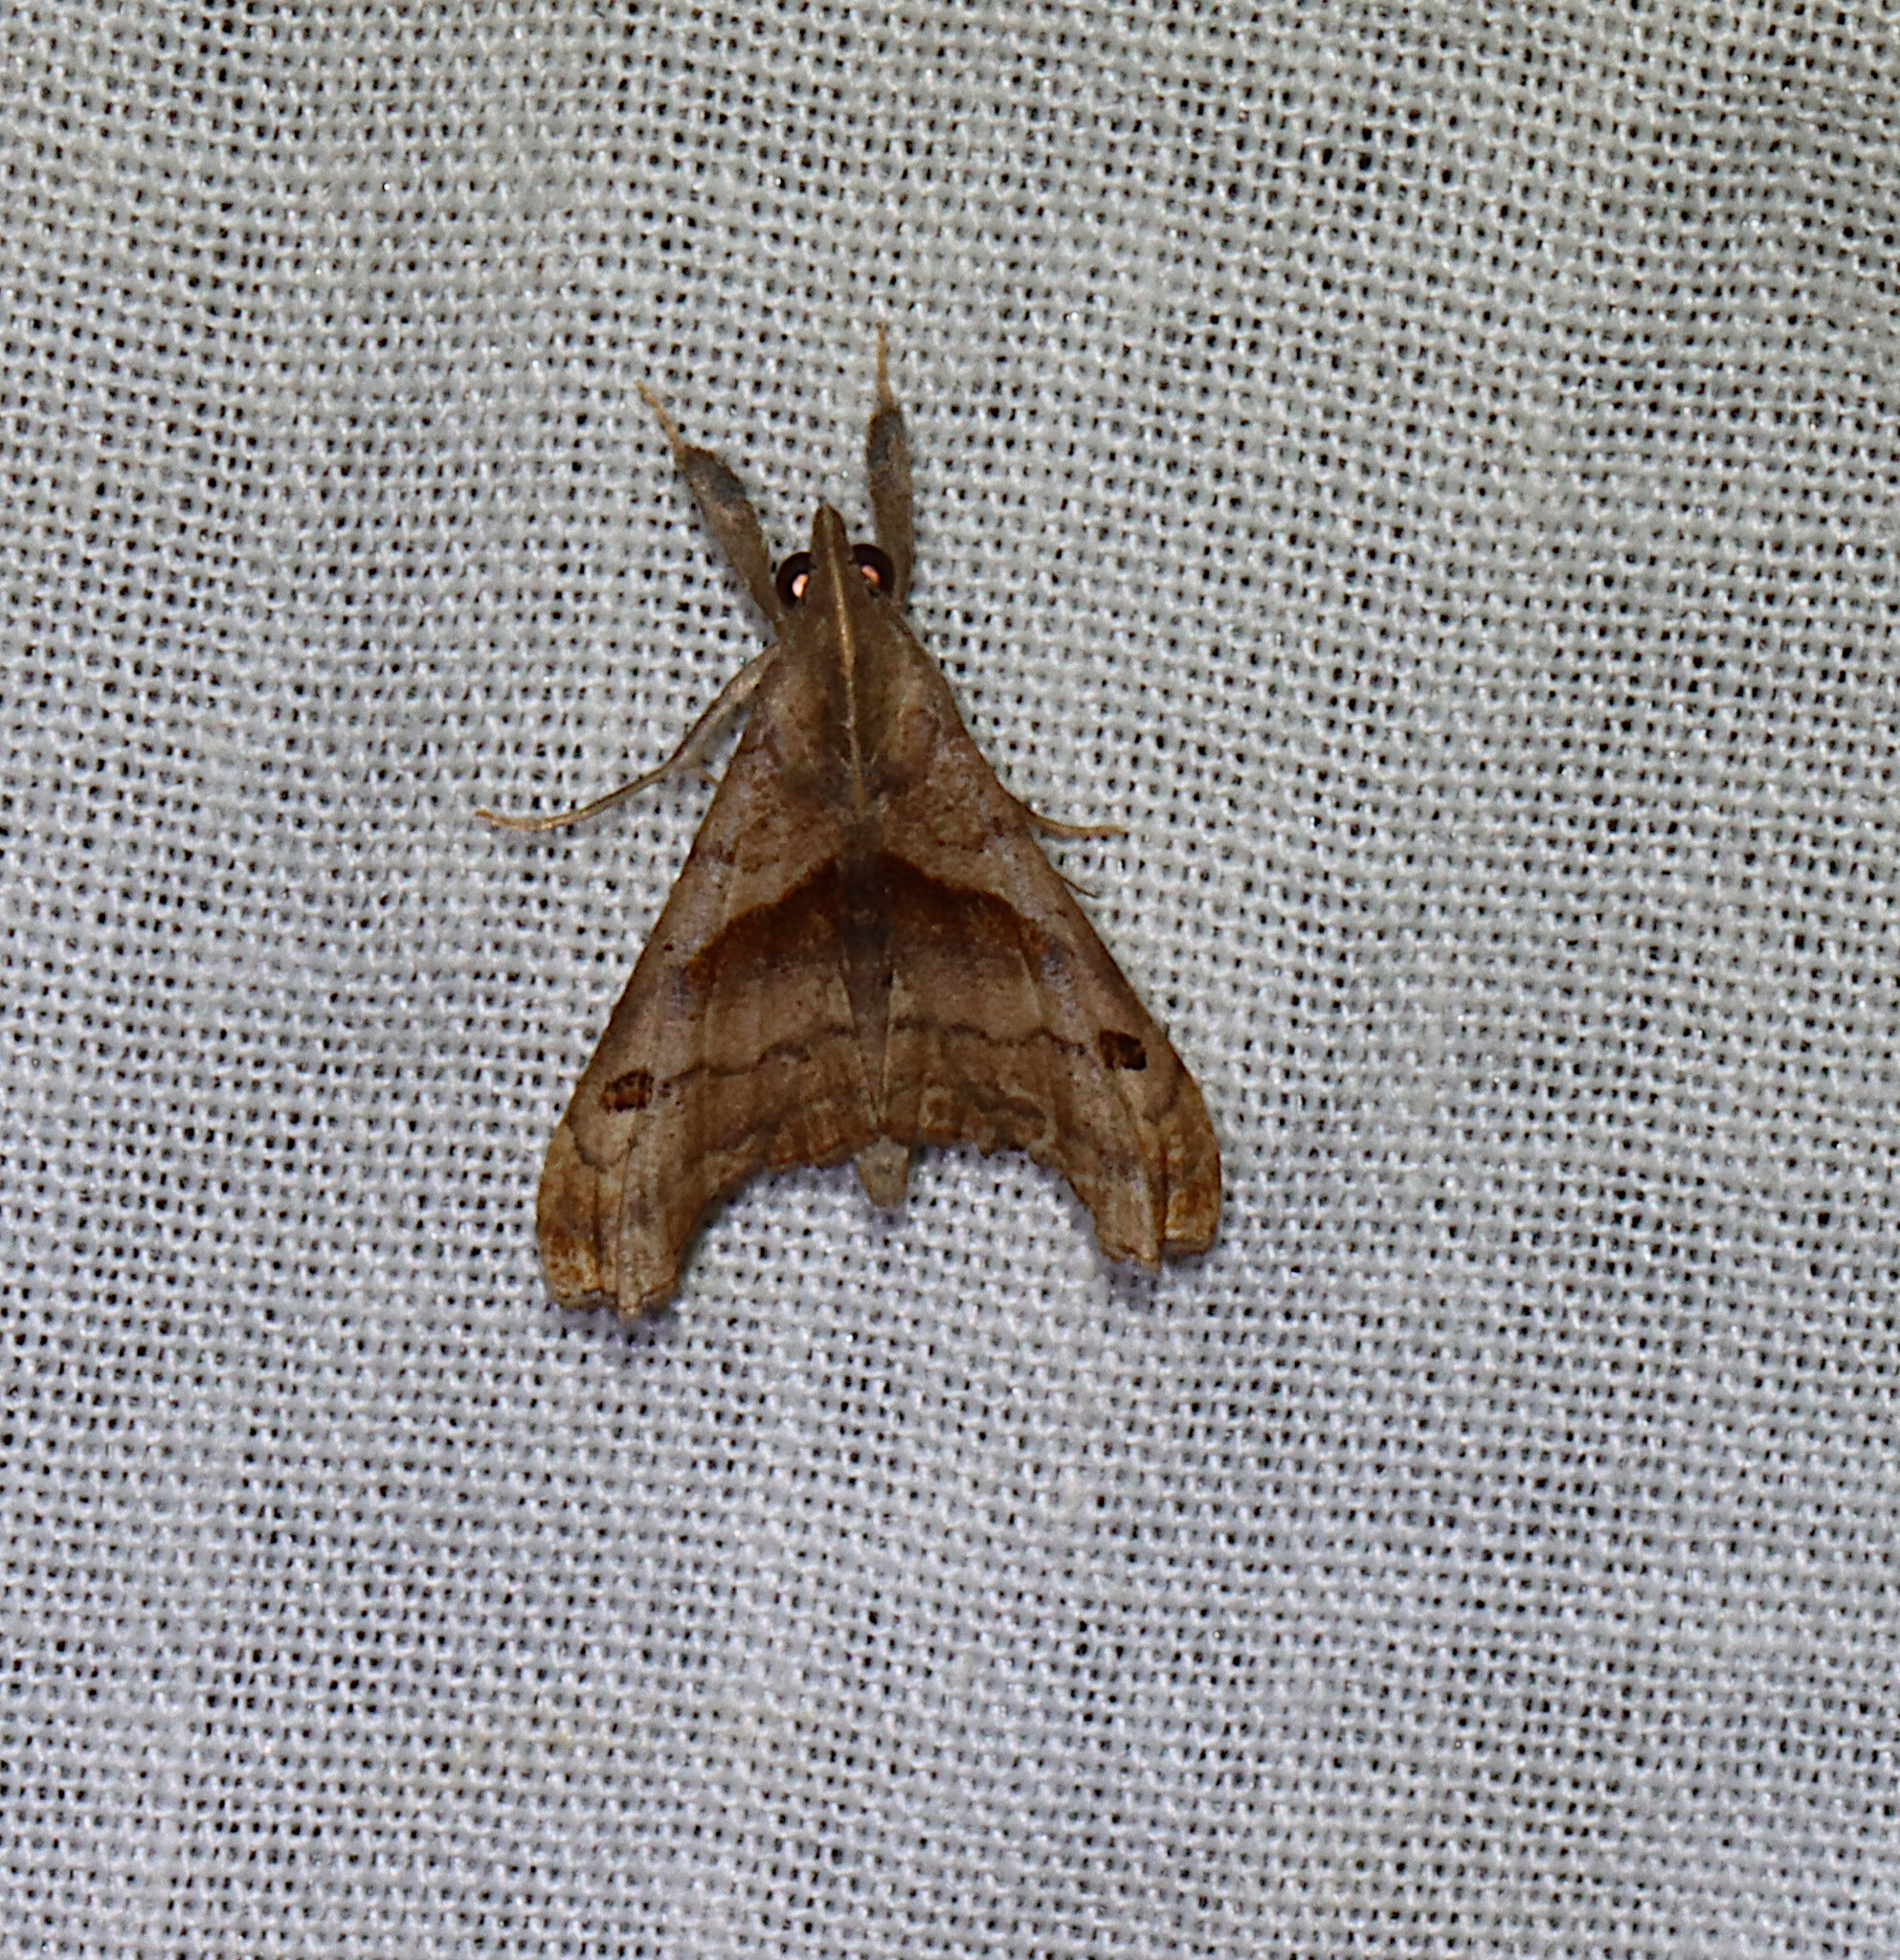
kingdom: Animalia
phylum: Arthropoda
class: Insecta
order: Lepidoptera
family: Erebidae
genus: Palthis
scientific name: Palthis angulalis
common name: Dark-spotted palthis moth
